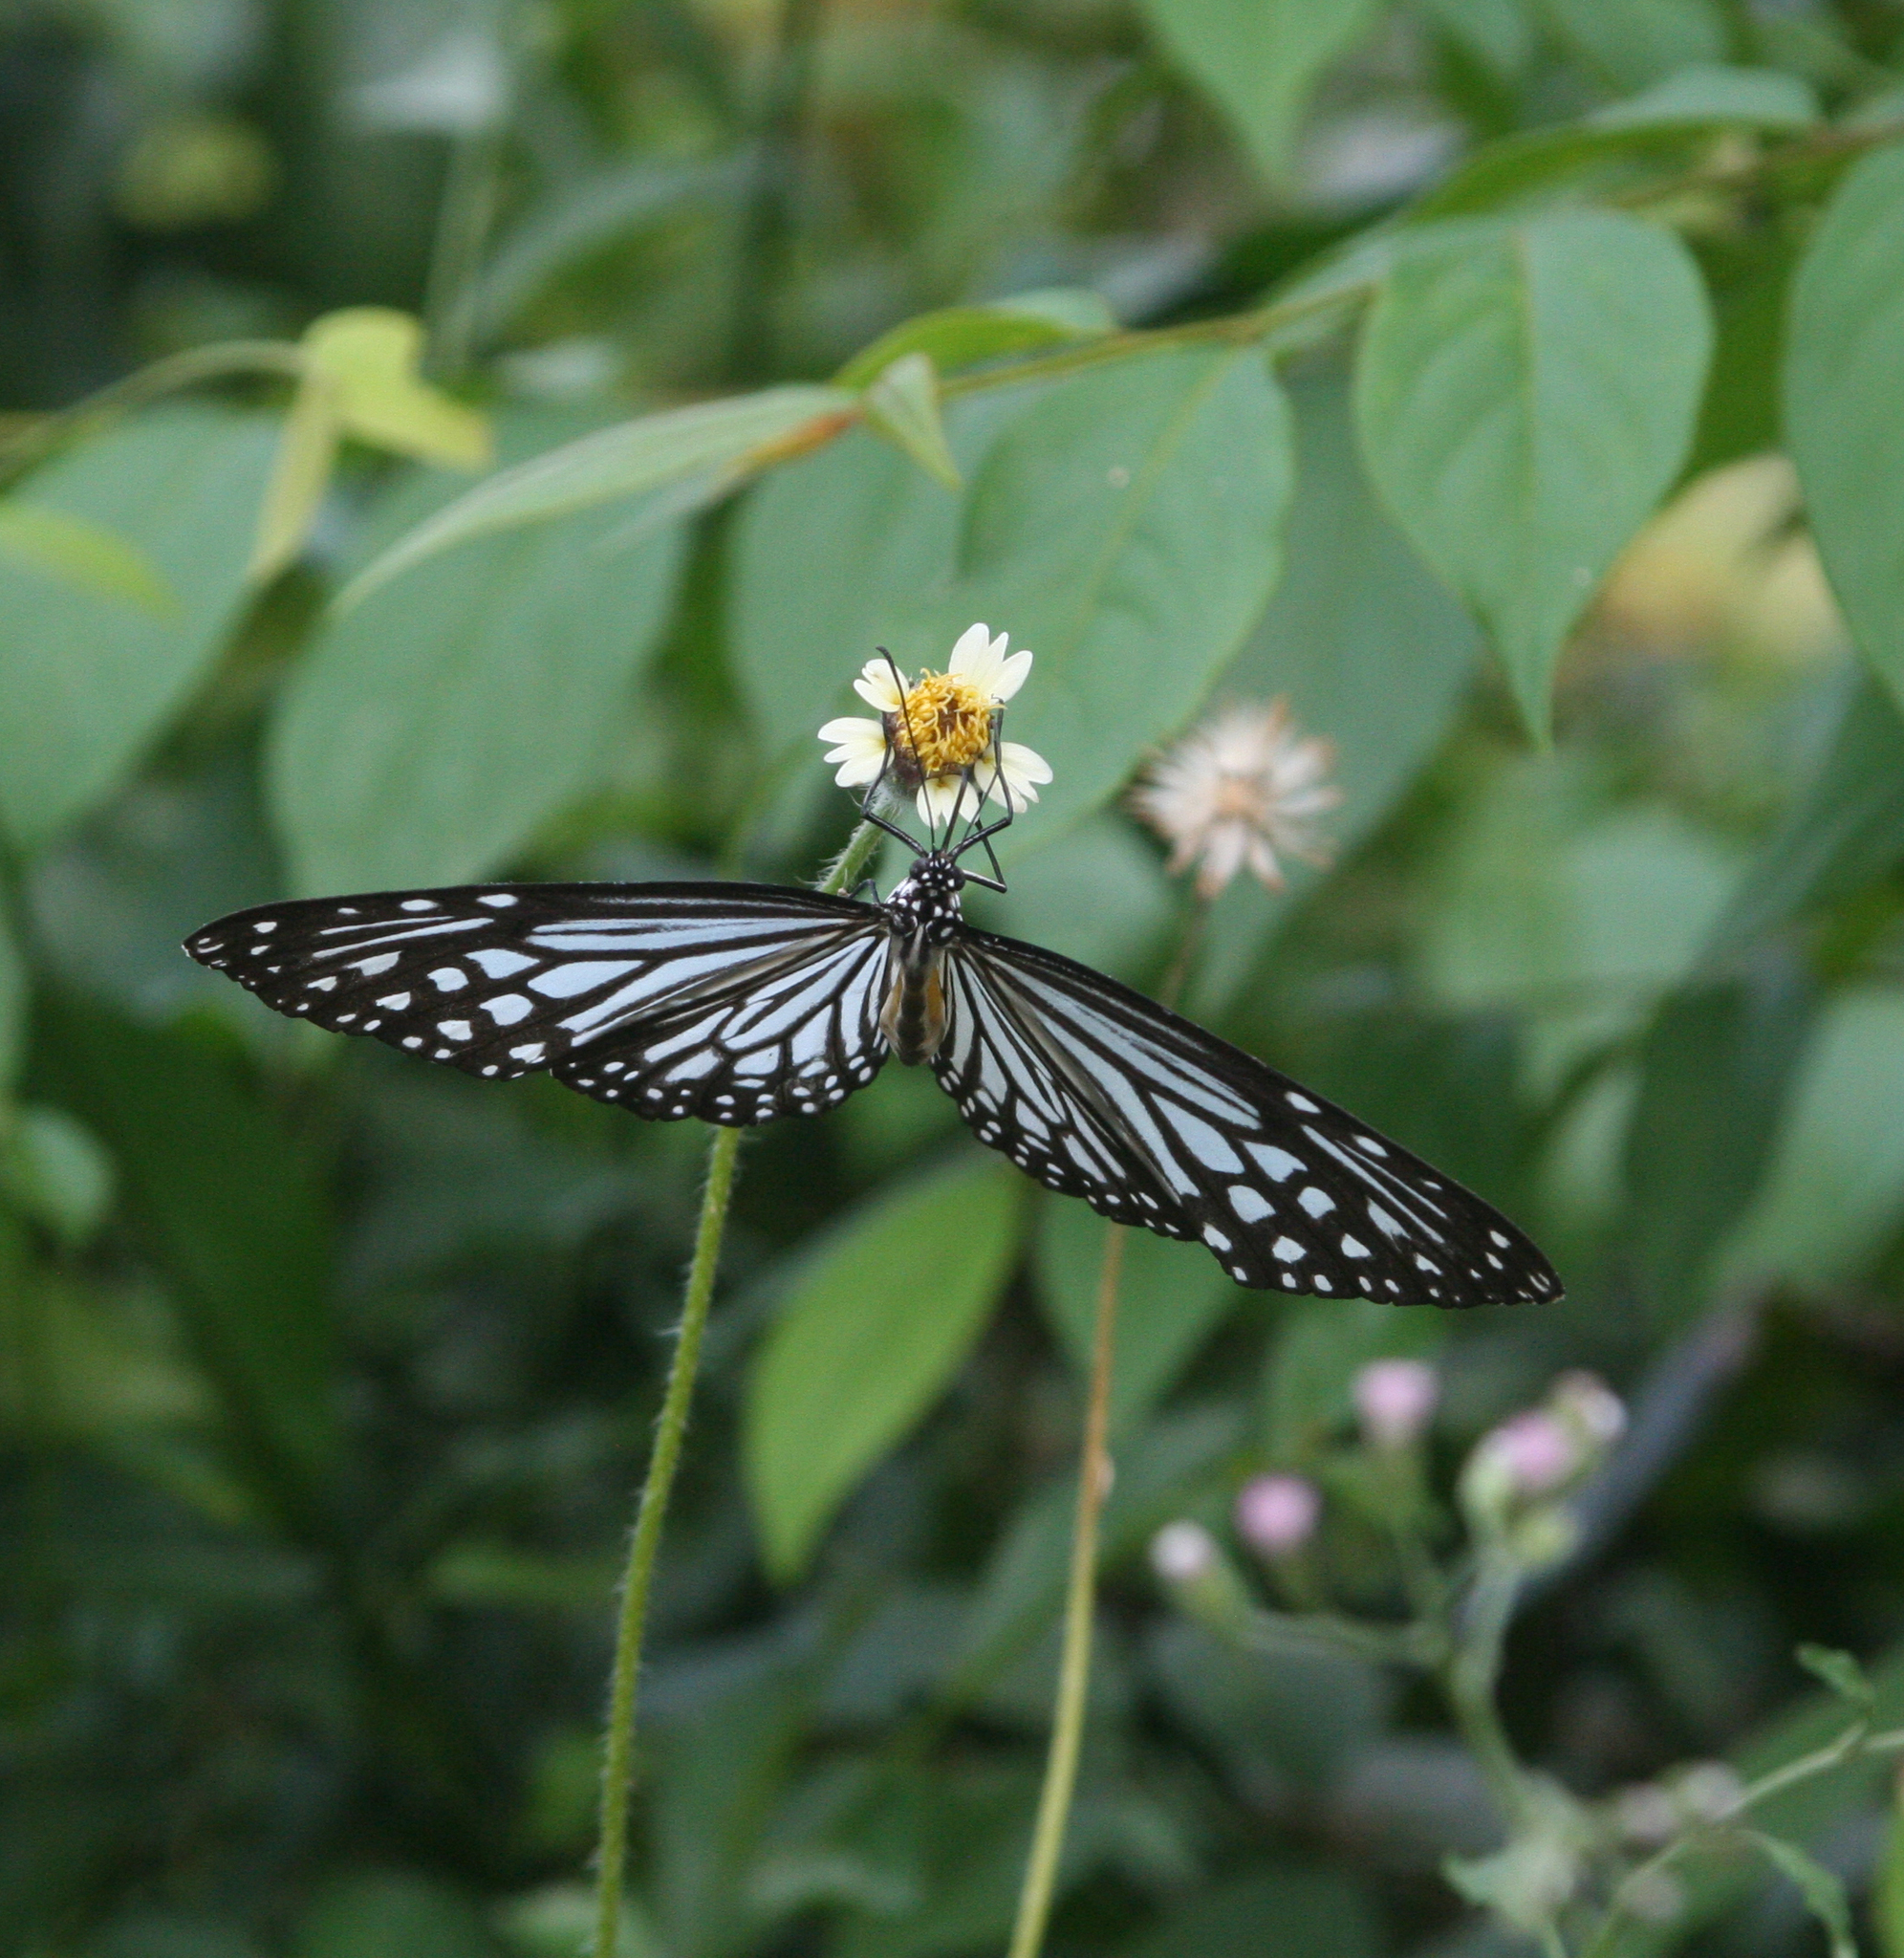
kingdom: Plantae
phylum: Tracheophyta
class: Magnoliopsida
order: Asterales
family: Asteraceae
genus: Tridax
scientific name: Tridax procumbens
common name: Coatbuttons
